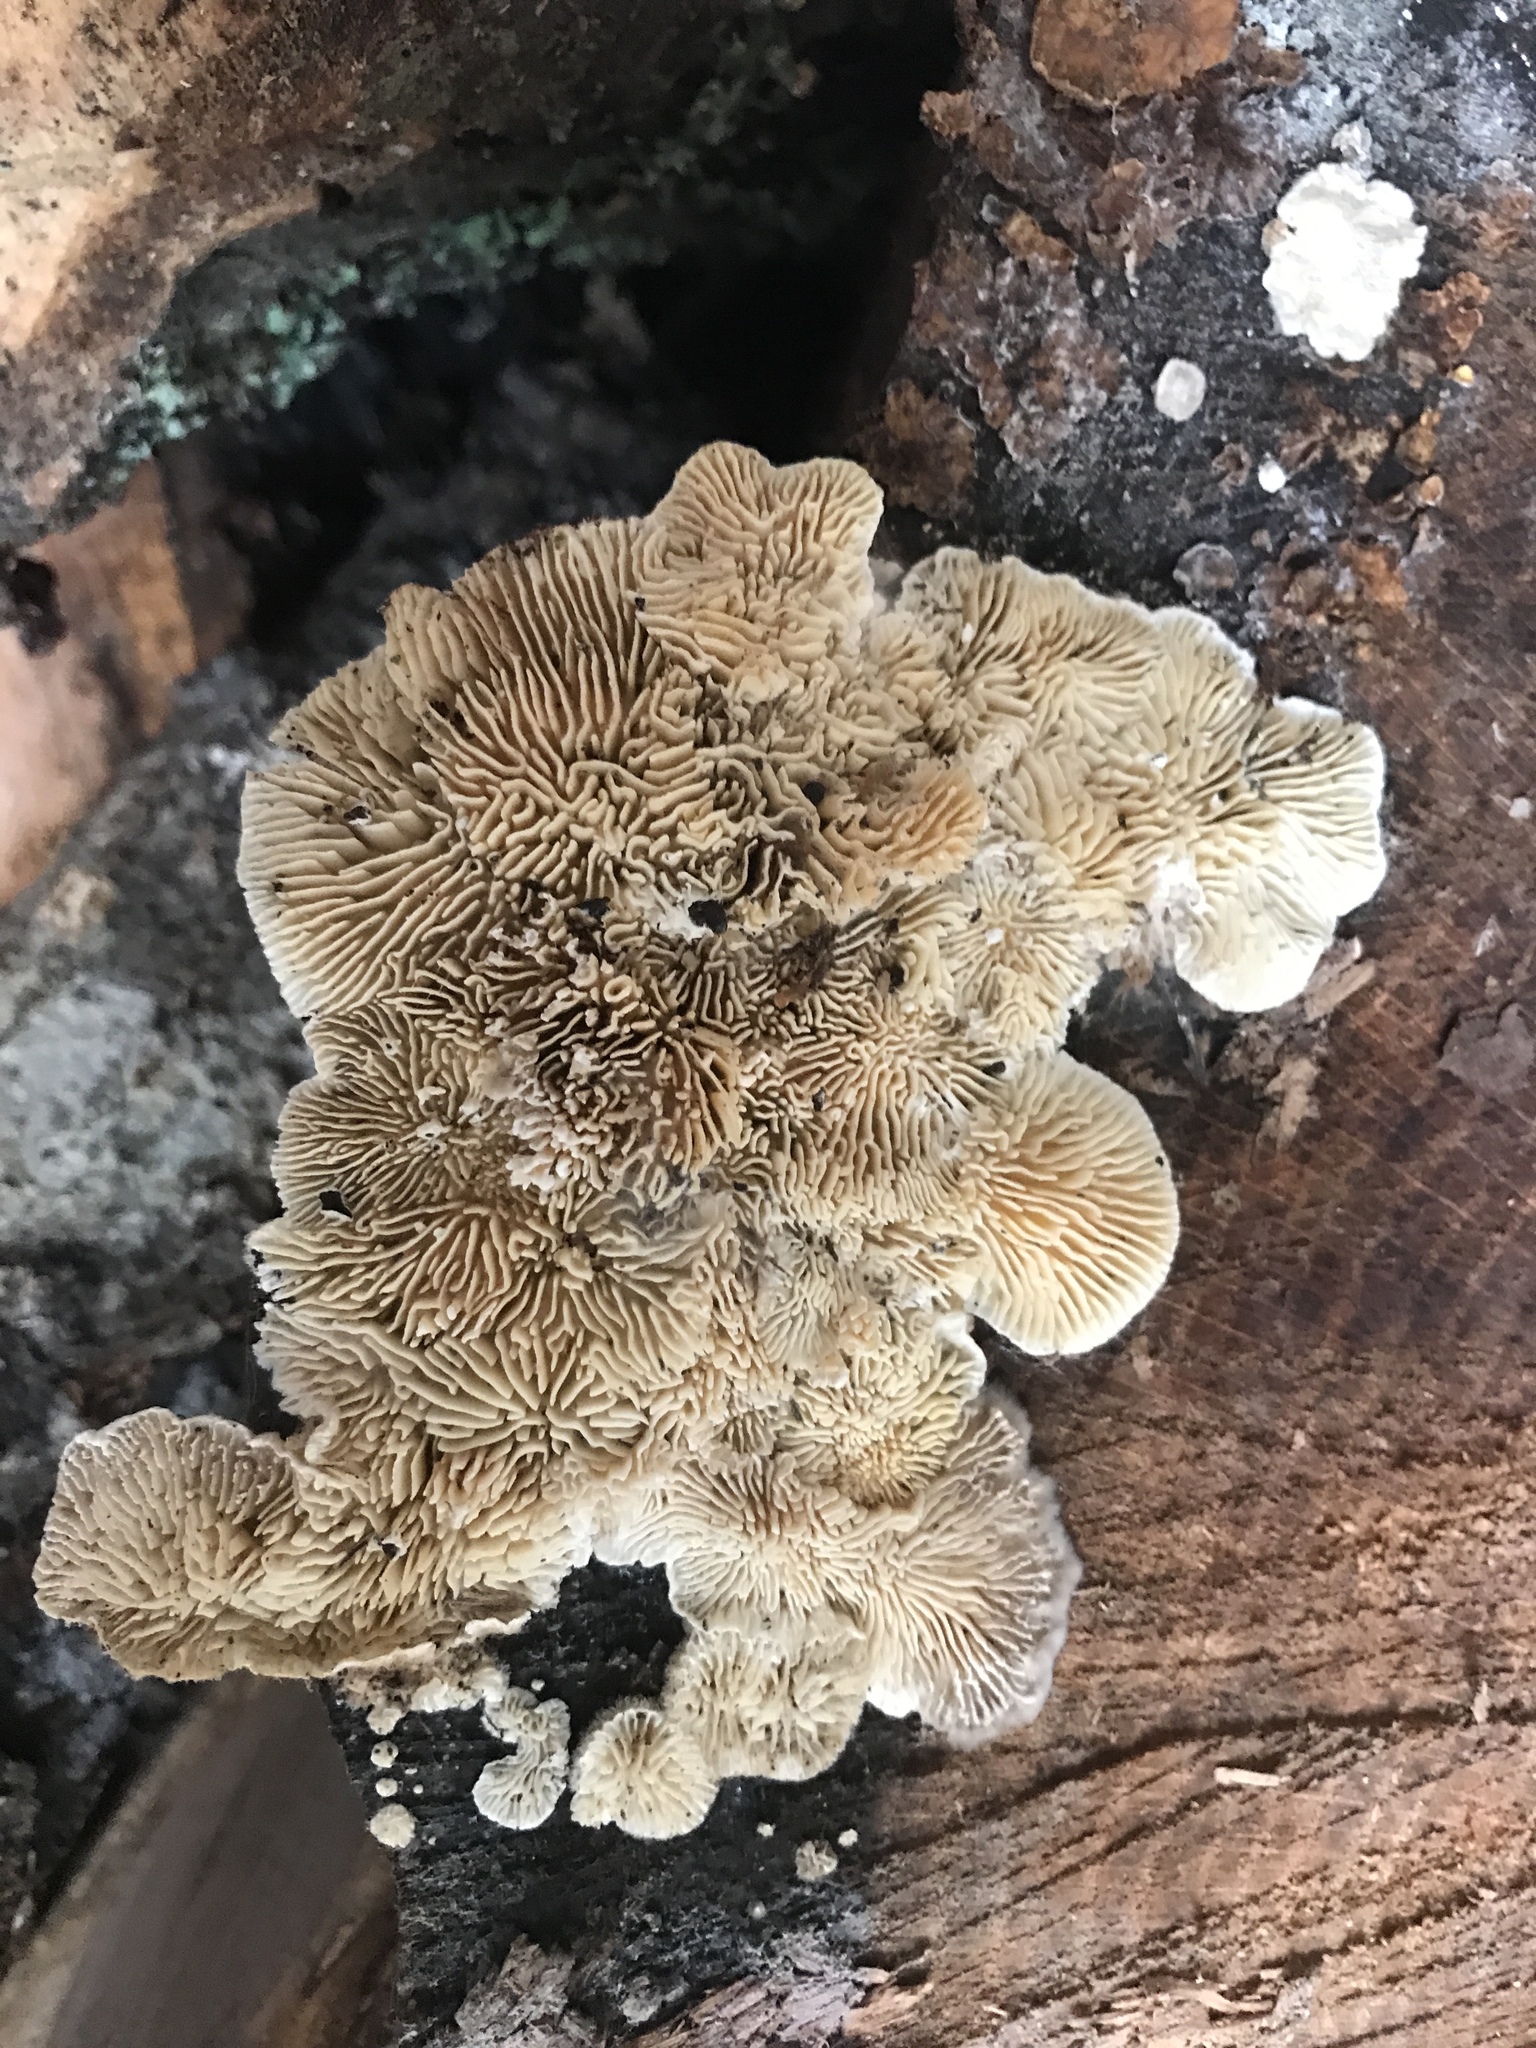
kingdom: Fungi
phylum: Basidiomycota
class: Agaricomycetes
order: Polyporales
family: Polyporaceae
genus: Lenzites
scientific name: Lenzites betulinus
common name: Birch mazegill
